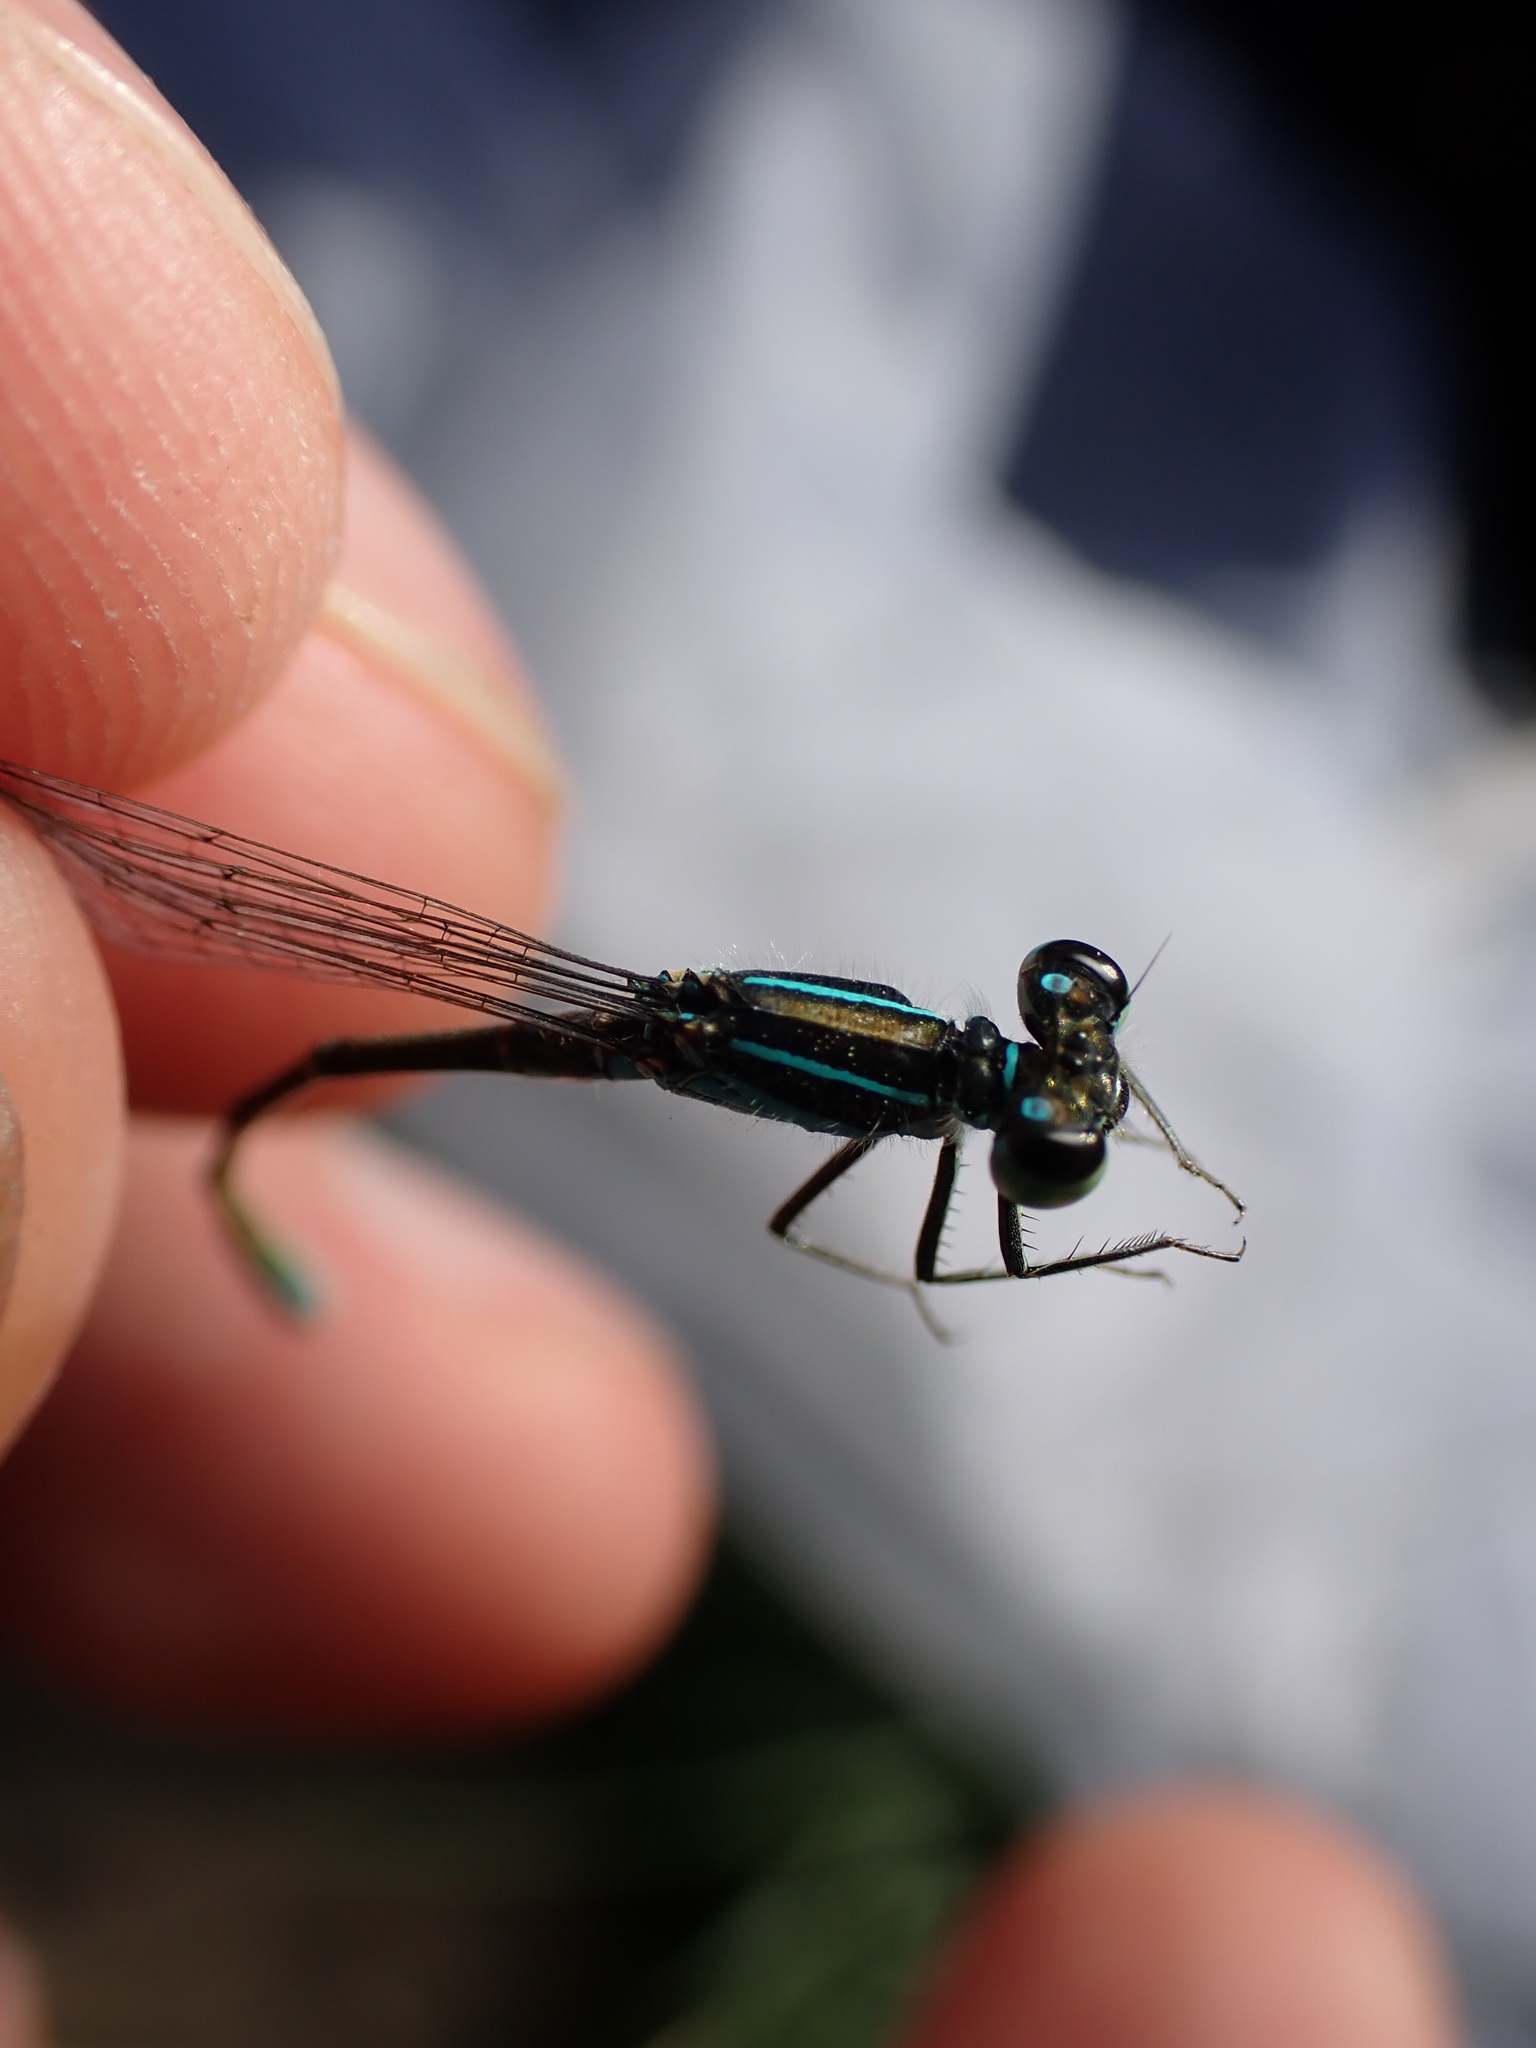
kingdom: Animalia
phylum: Arthropoda
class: Insecta
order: Odonata
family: Coenagrionidae
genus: Ischnura
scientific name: Ischnura elegans
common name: Blue-tailed damselfly
